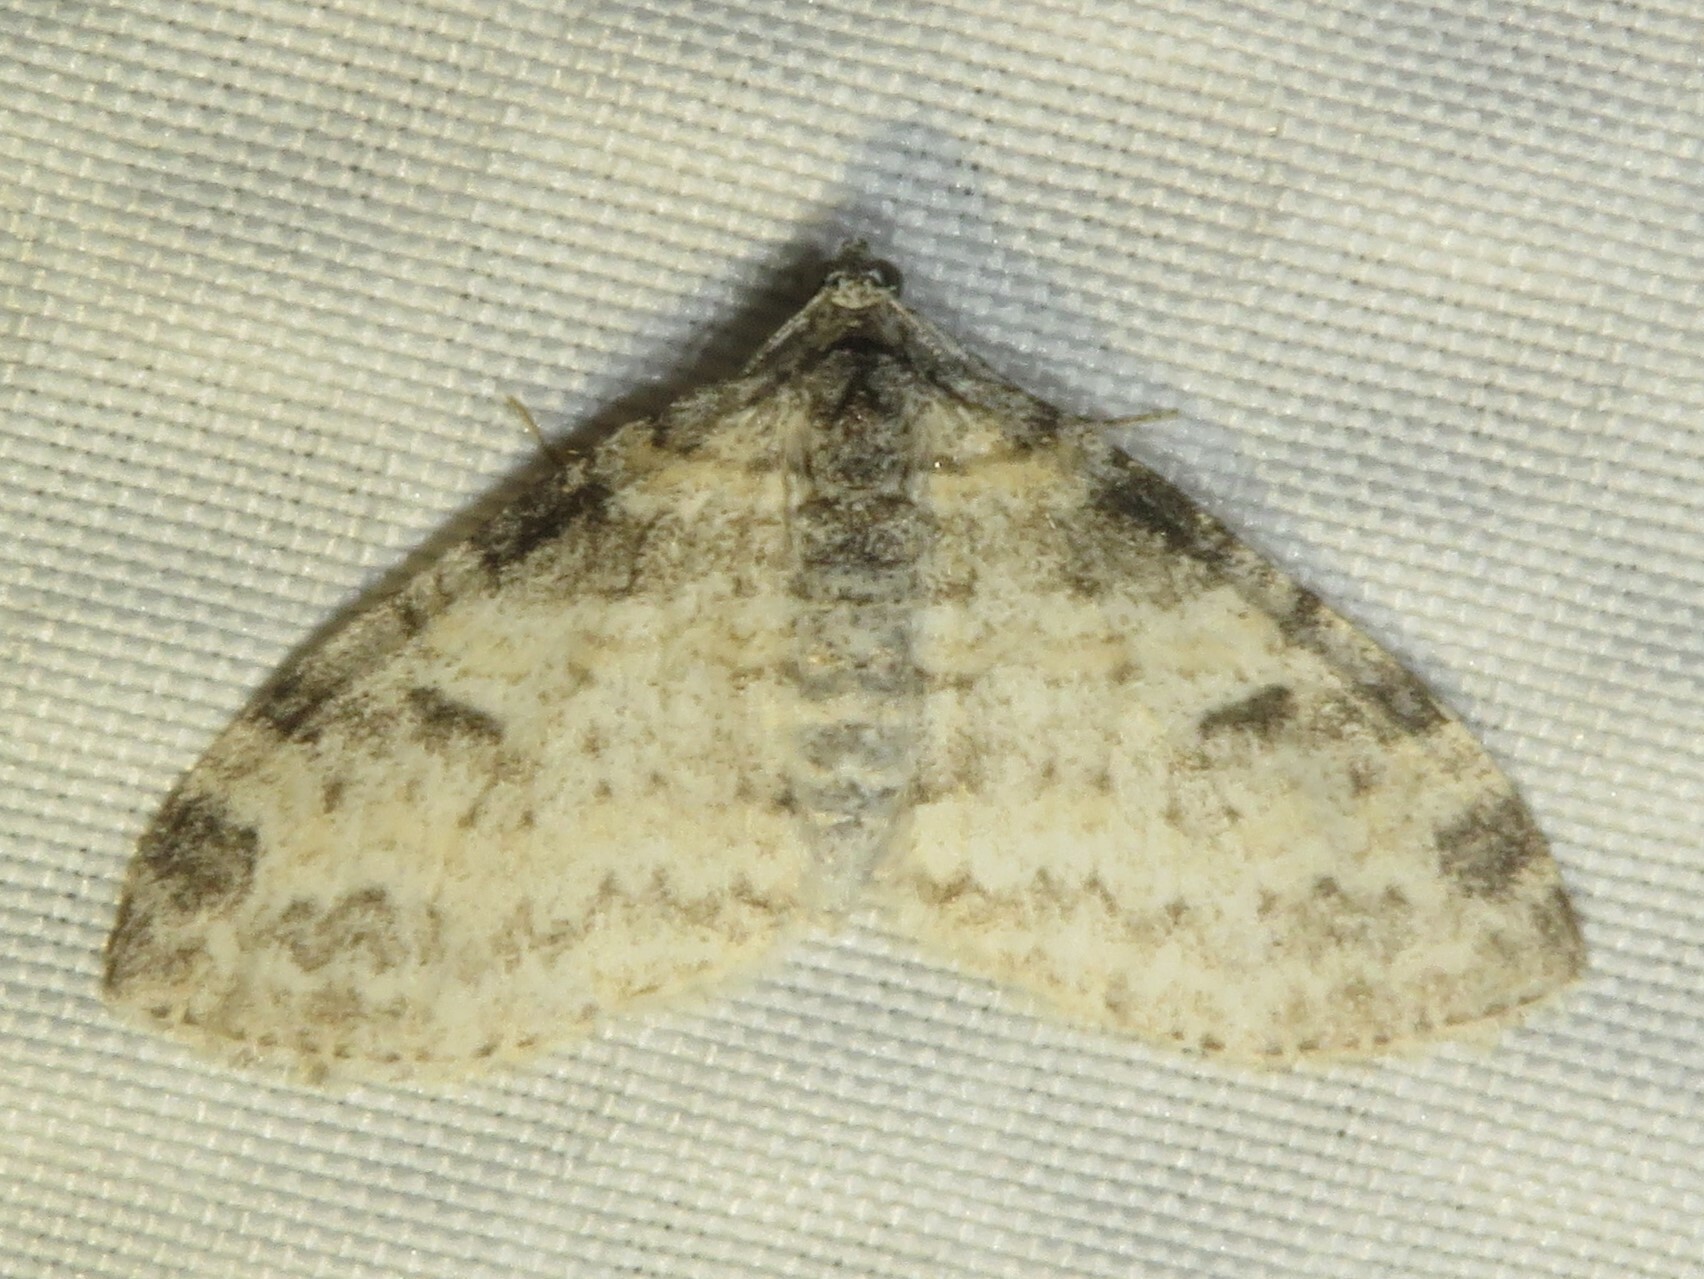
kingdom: Animalia
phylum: Arthropoda
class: Insecta
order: Lepidoptera
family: Geometridae
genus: Lobophora
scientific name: Lobophora nivigerata
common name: Powdered bigwing
